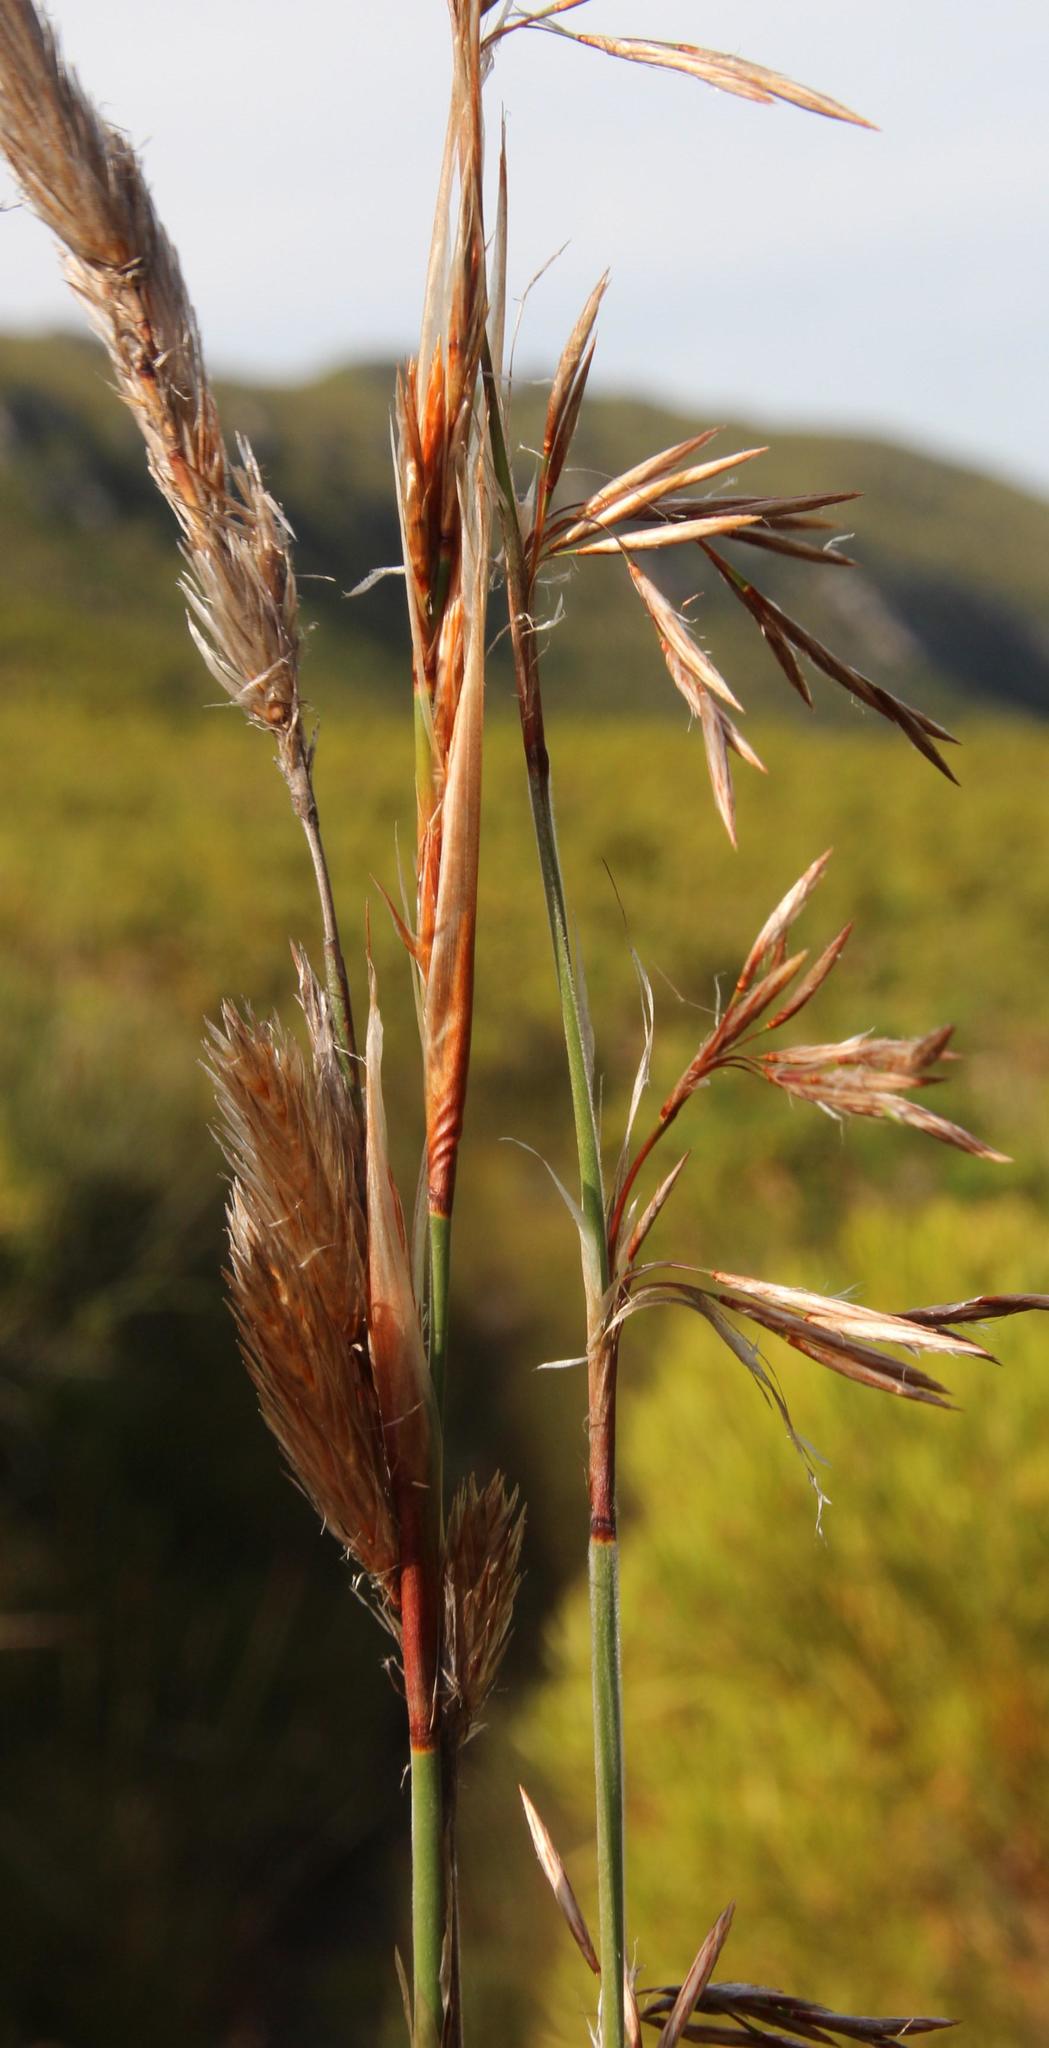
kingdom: Plantae
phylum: Tracheophyta
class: Liliopsida
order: Poales
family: Restionaceae
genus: Thamnochortus
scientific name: Thamnochortus cinereus
